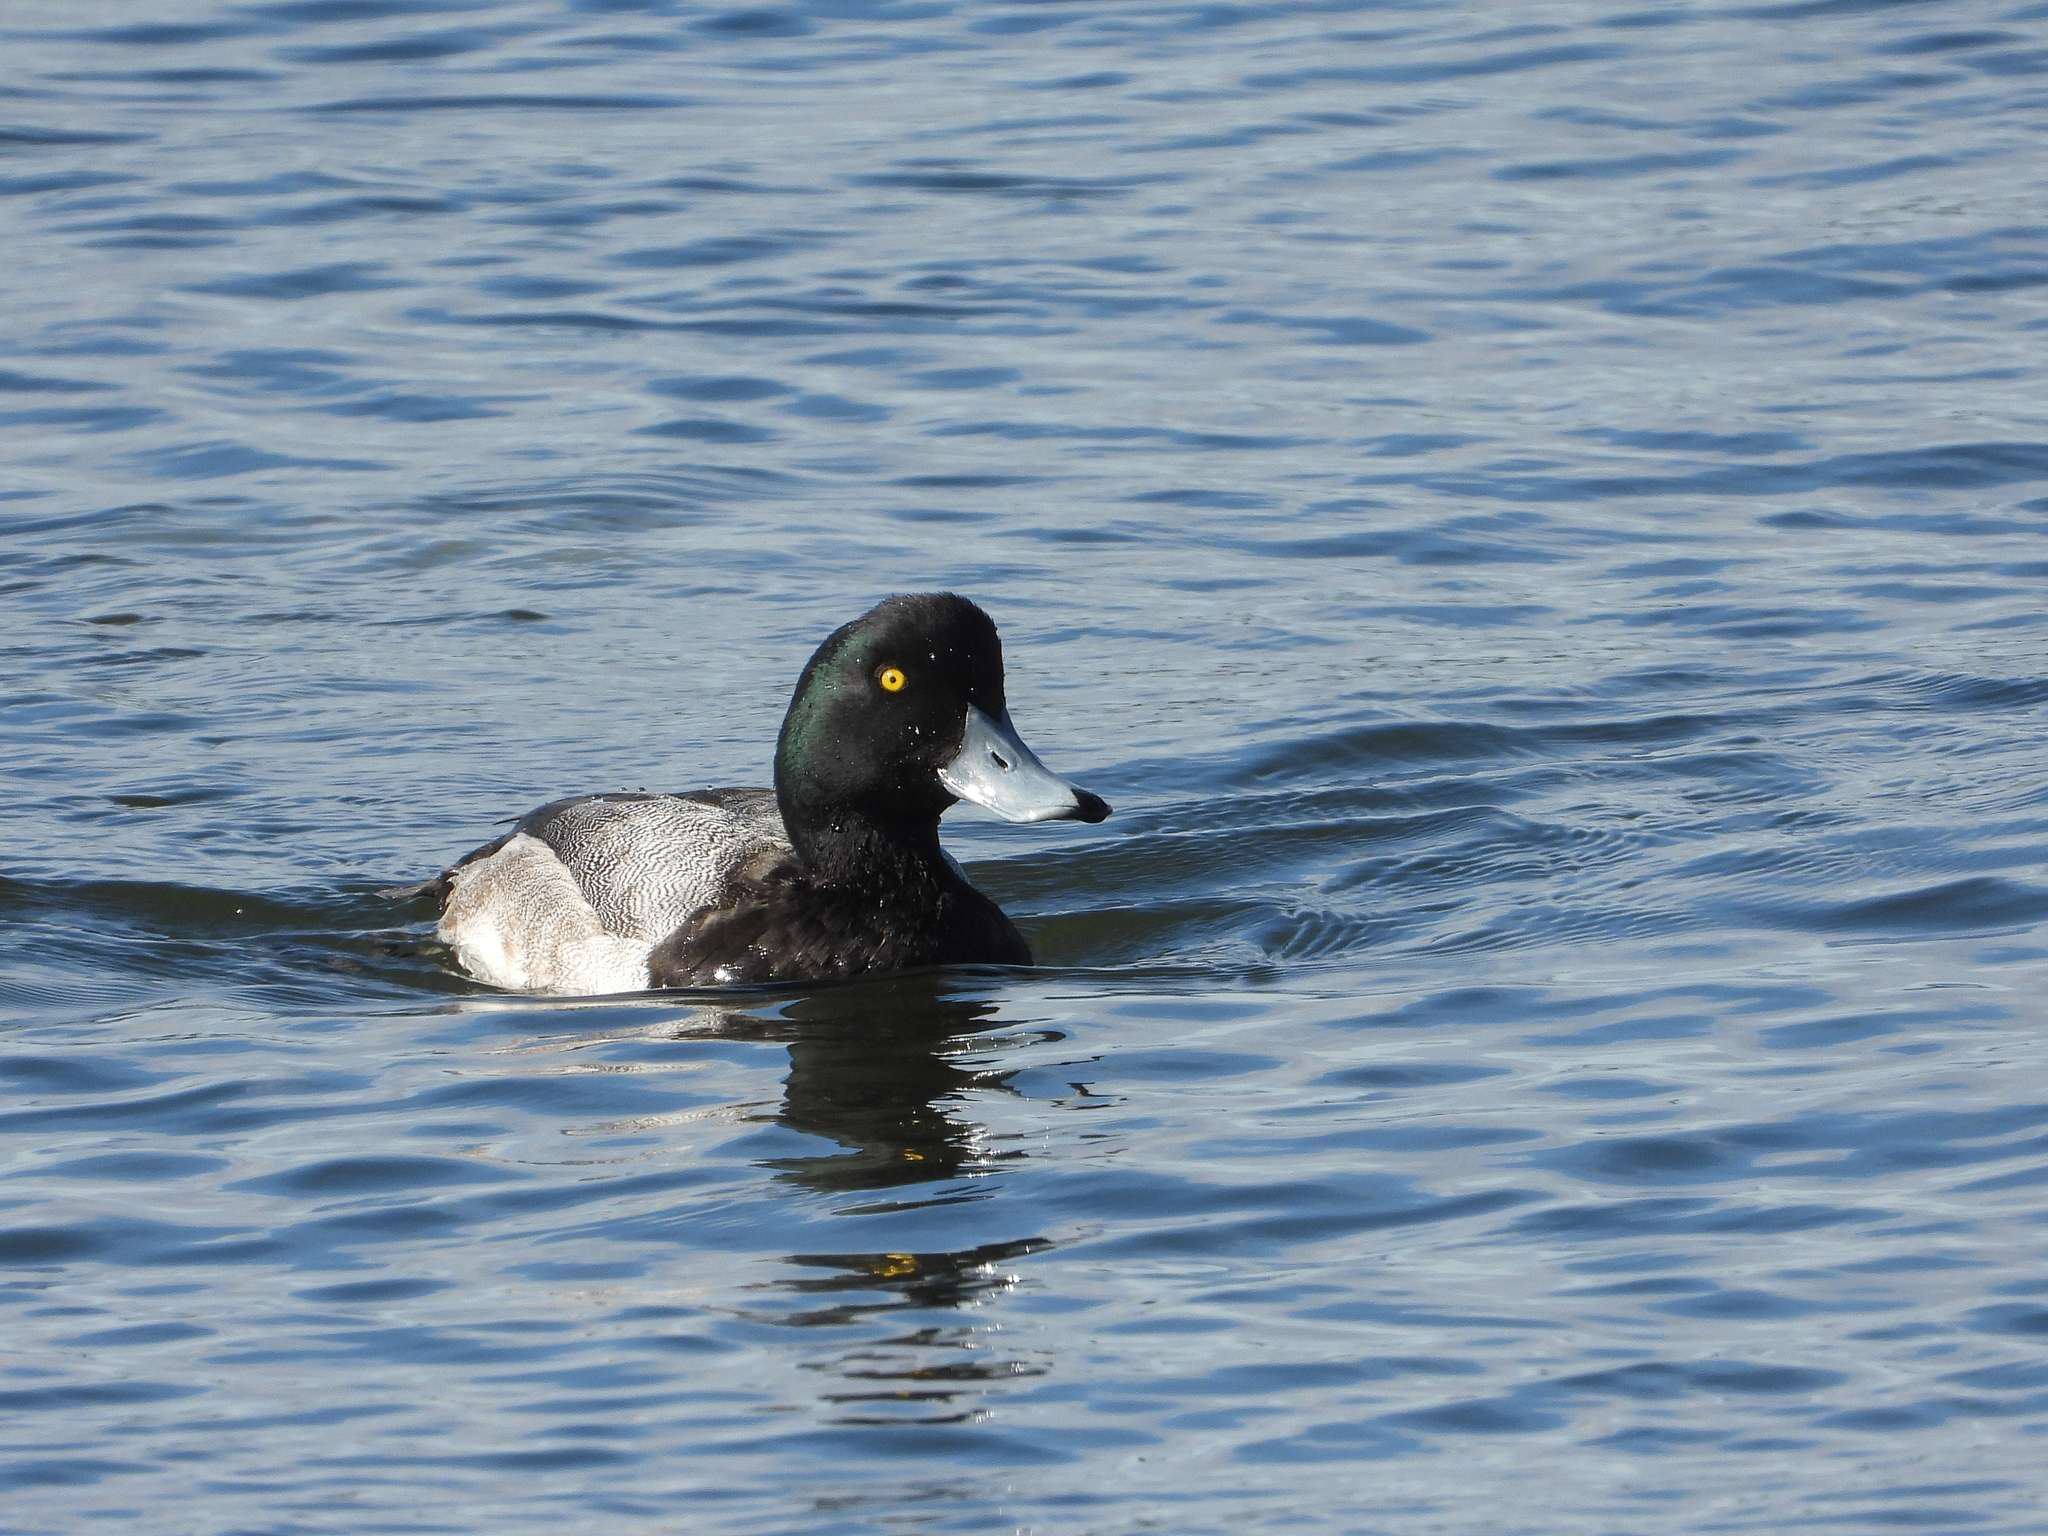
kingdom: Animalia
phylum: Chordata
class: Aves
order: Anseriformes
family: Anatidae
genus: Aythya
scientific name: Aythya marila
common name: Greater scaup
